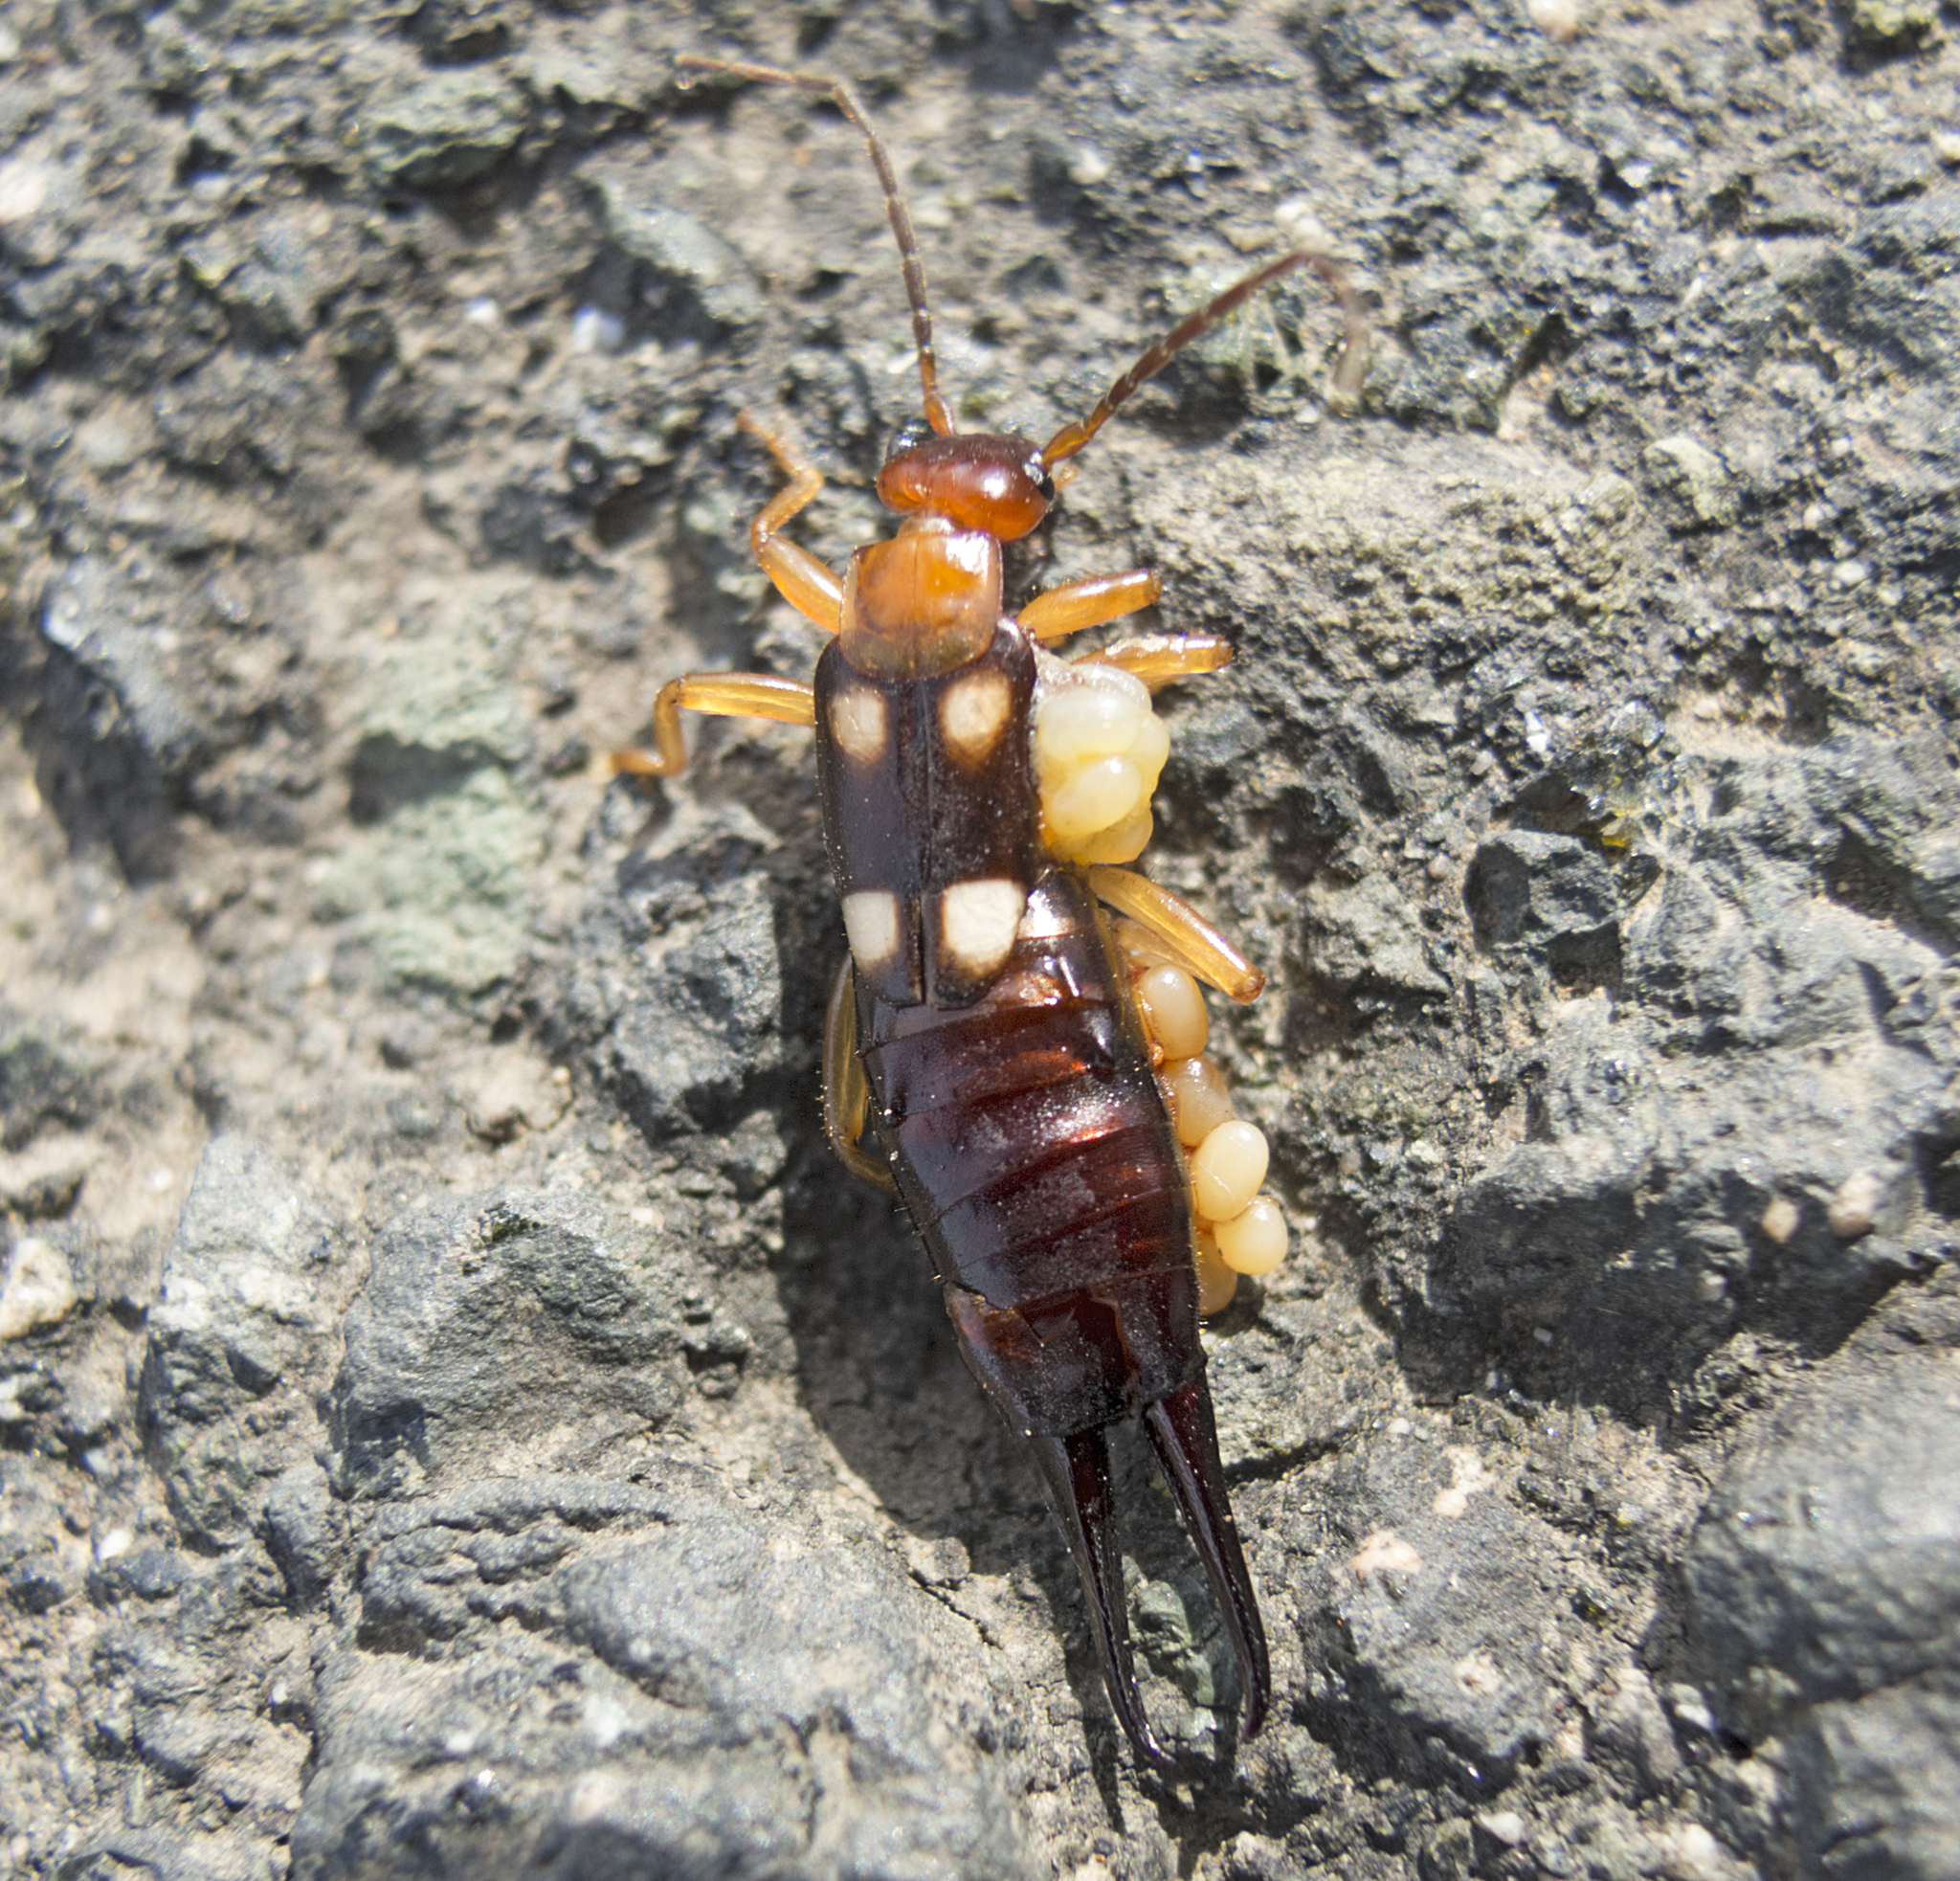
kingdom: Animalia
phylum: Arthropoda
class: Insecta
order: Dermaptera
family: Forficulidae
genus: Forficula
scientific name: Forficula smyrnensis
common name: Smyrna earwig
